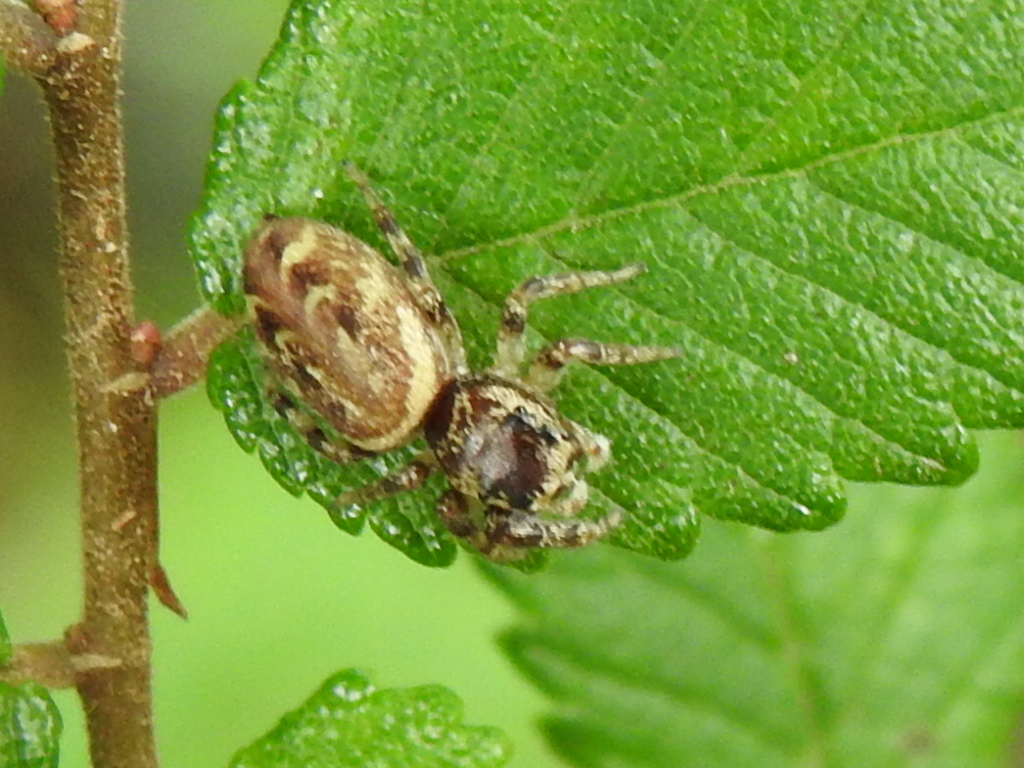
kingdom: Animalia
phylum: Arthropoda
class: Arachnida
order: Araneae
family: Salticidae
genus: Pelegrina
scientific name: Pelegrina proterva
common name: Common white-cheeked jumping spider
